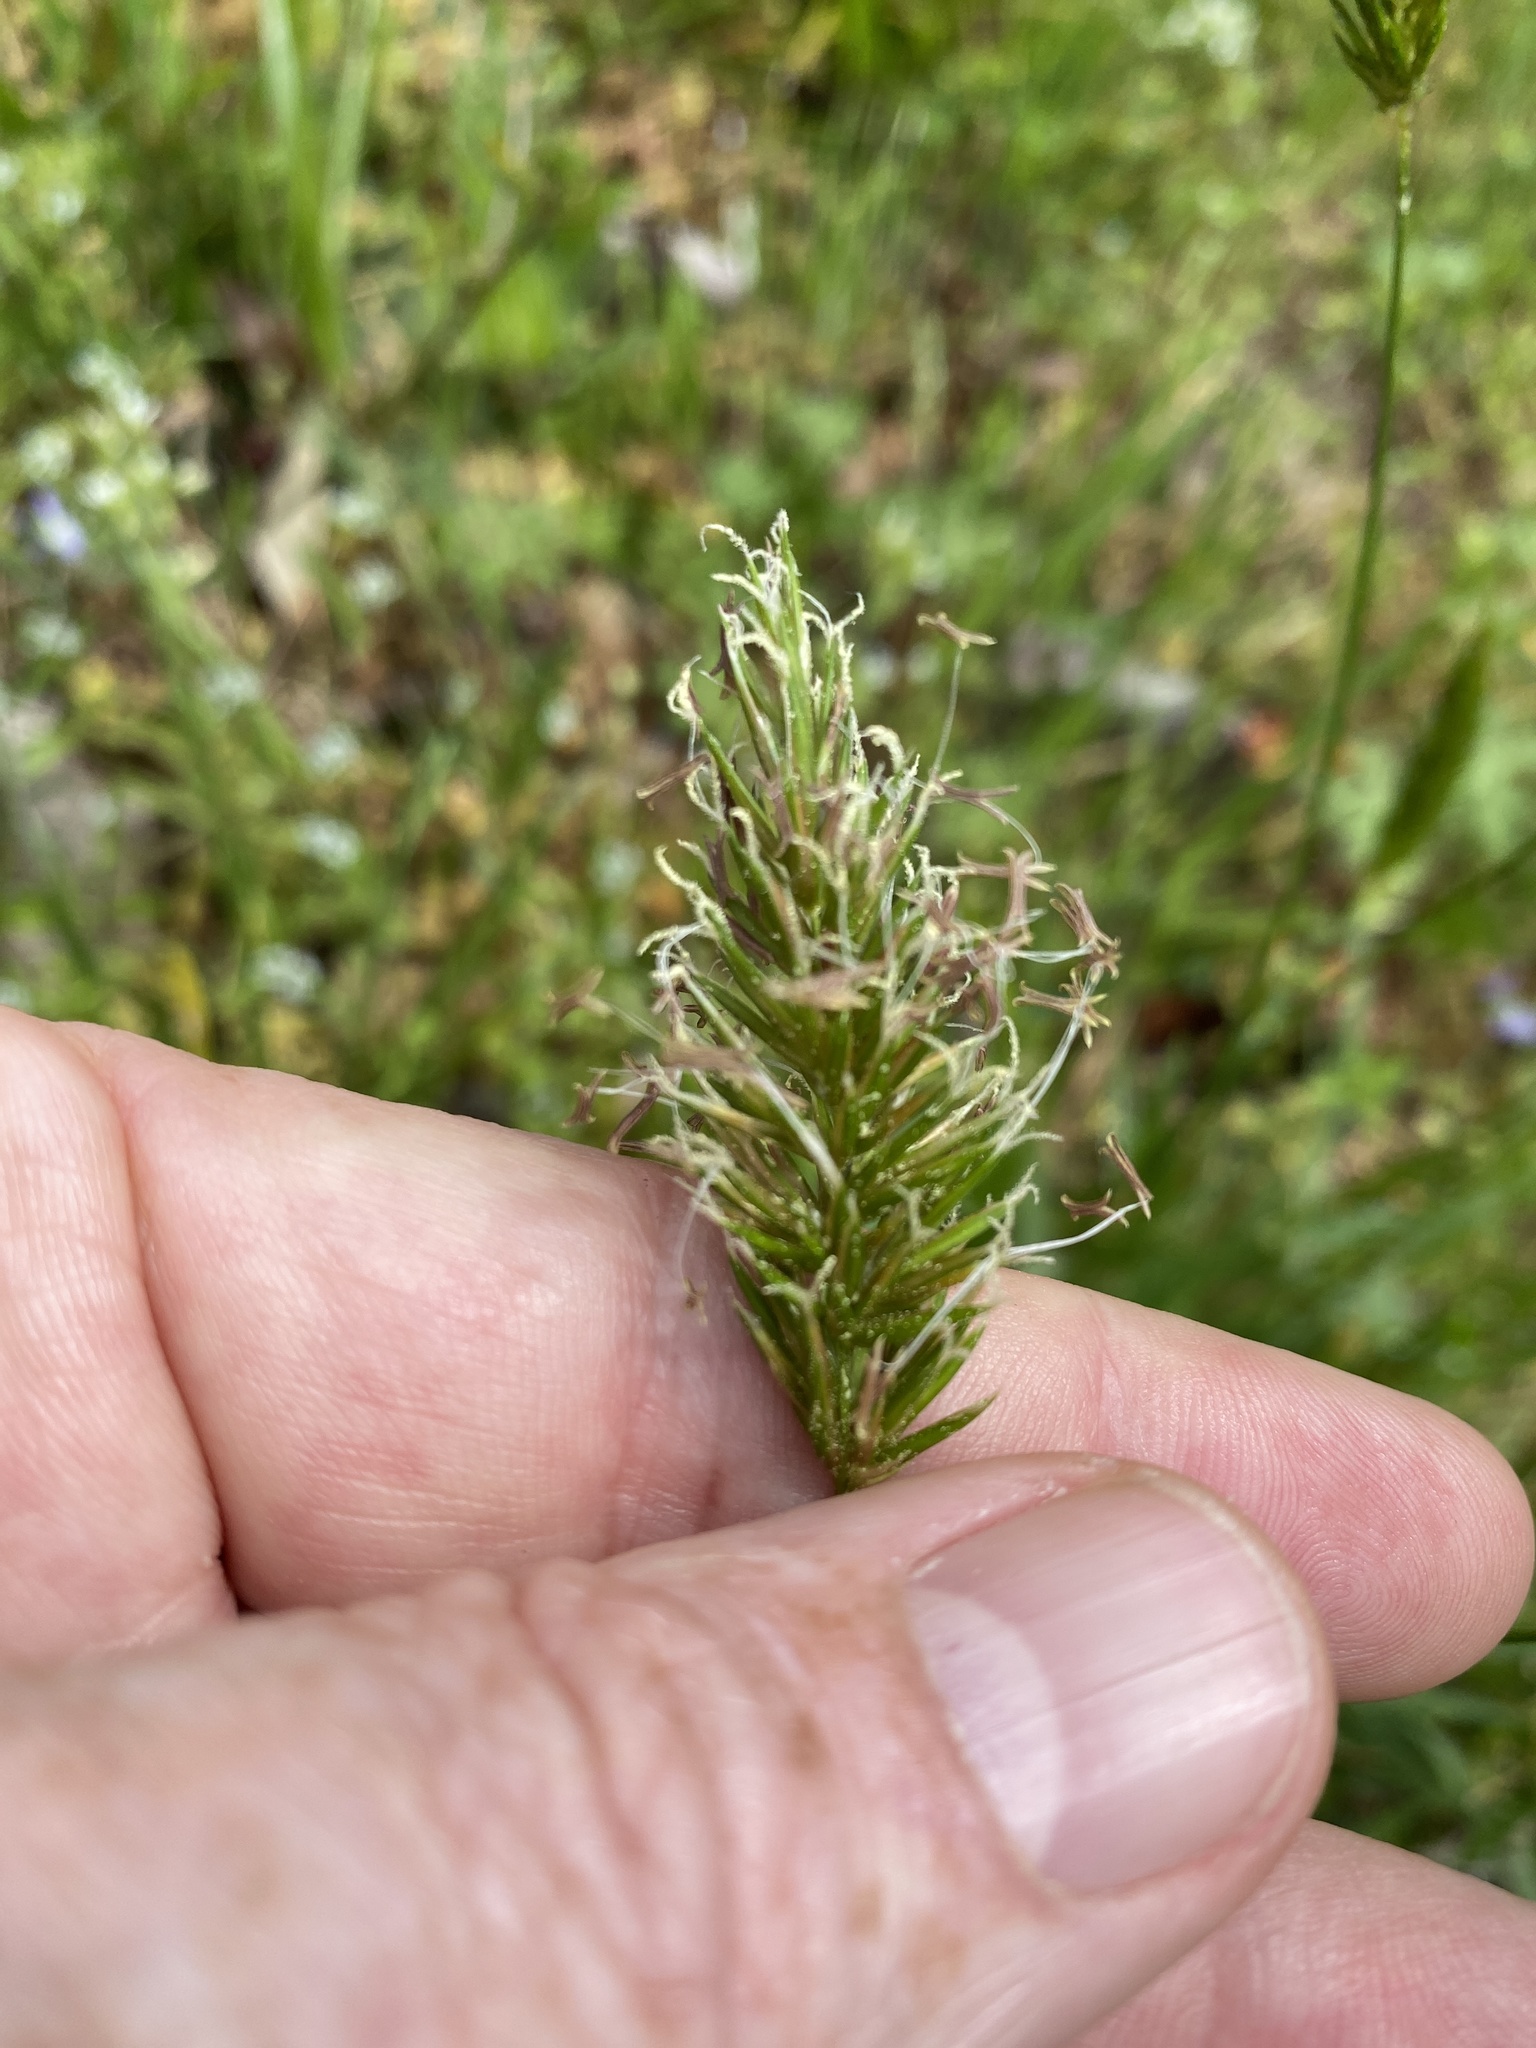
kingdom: Plantae
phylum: Tracheophyta
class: Liliopsida
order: Poales
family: Poaceae
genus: Anthoxanthum
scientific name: Anthoxanthum odoratum
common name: Sweet vernalgrass
